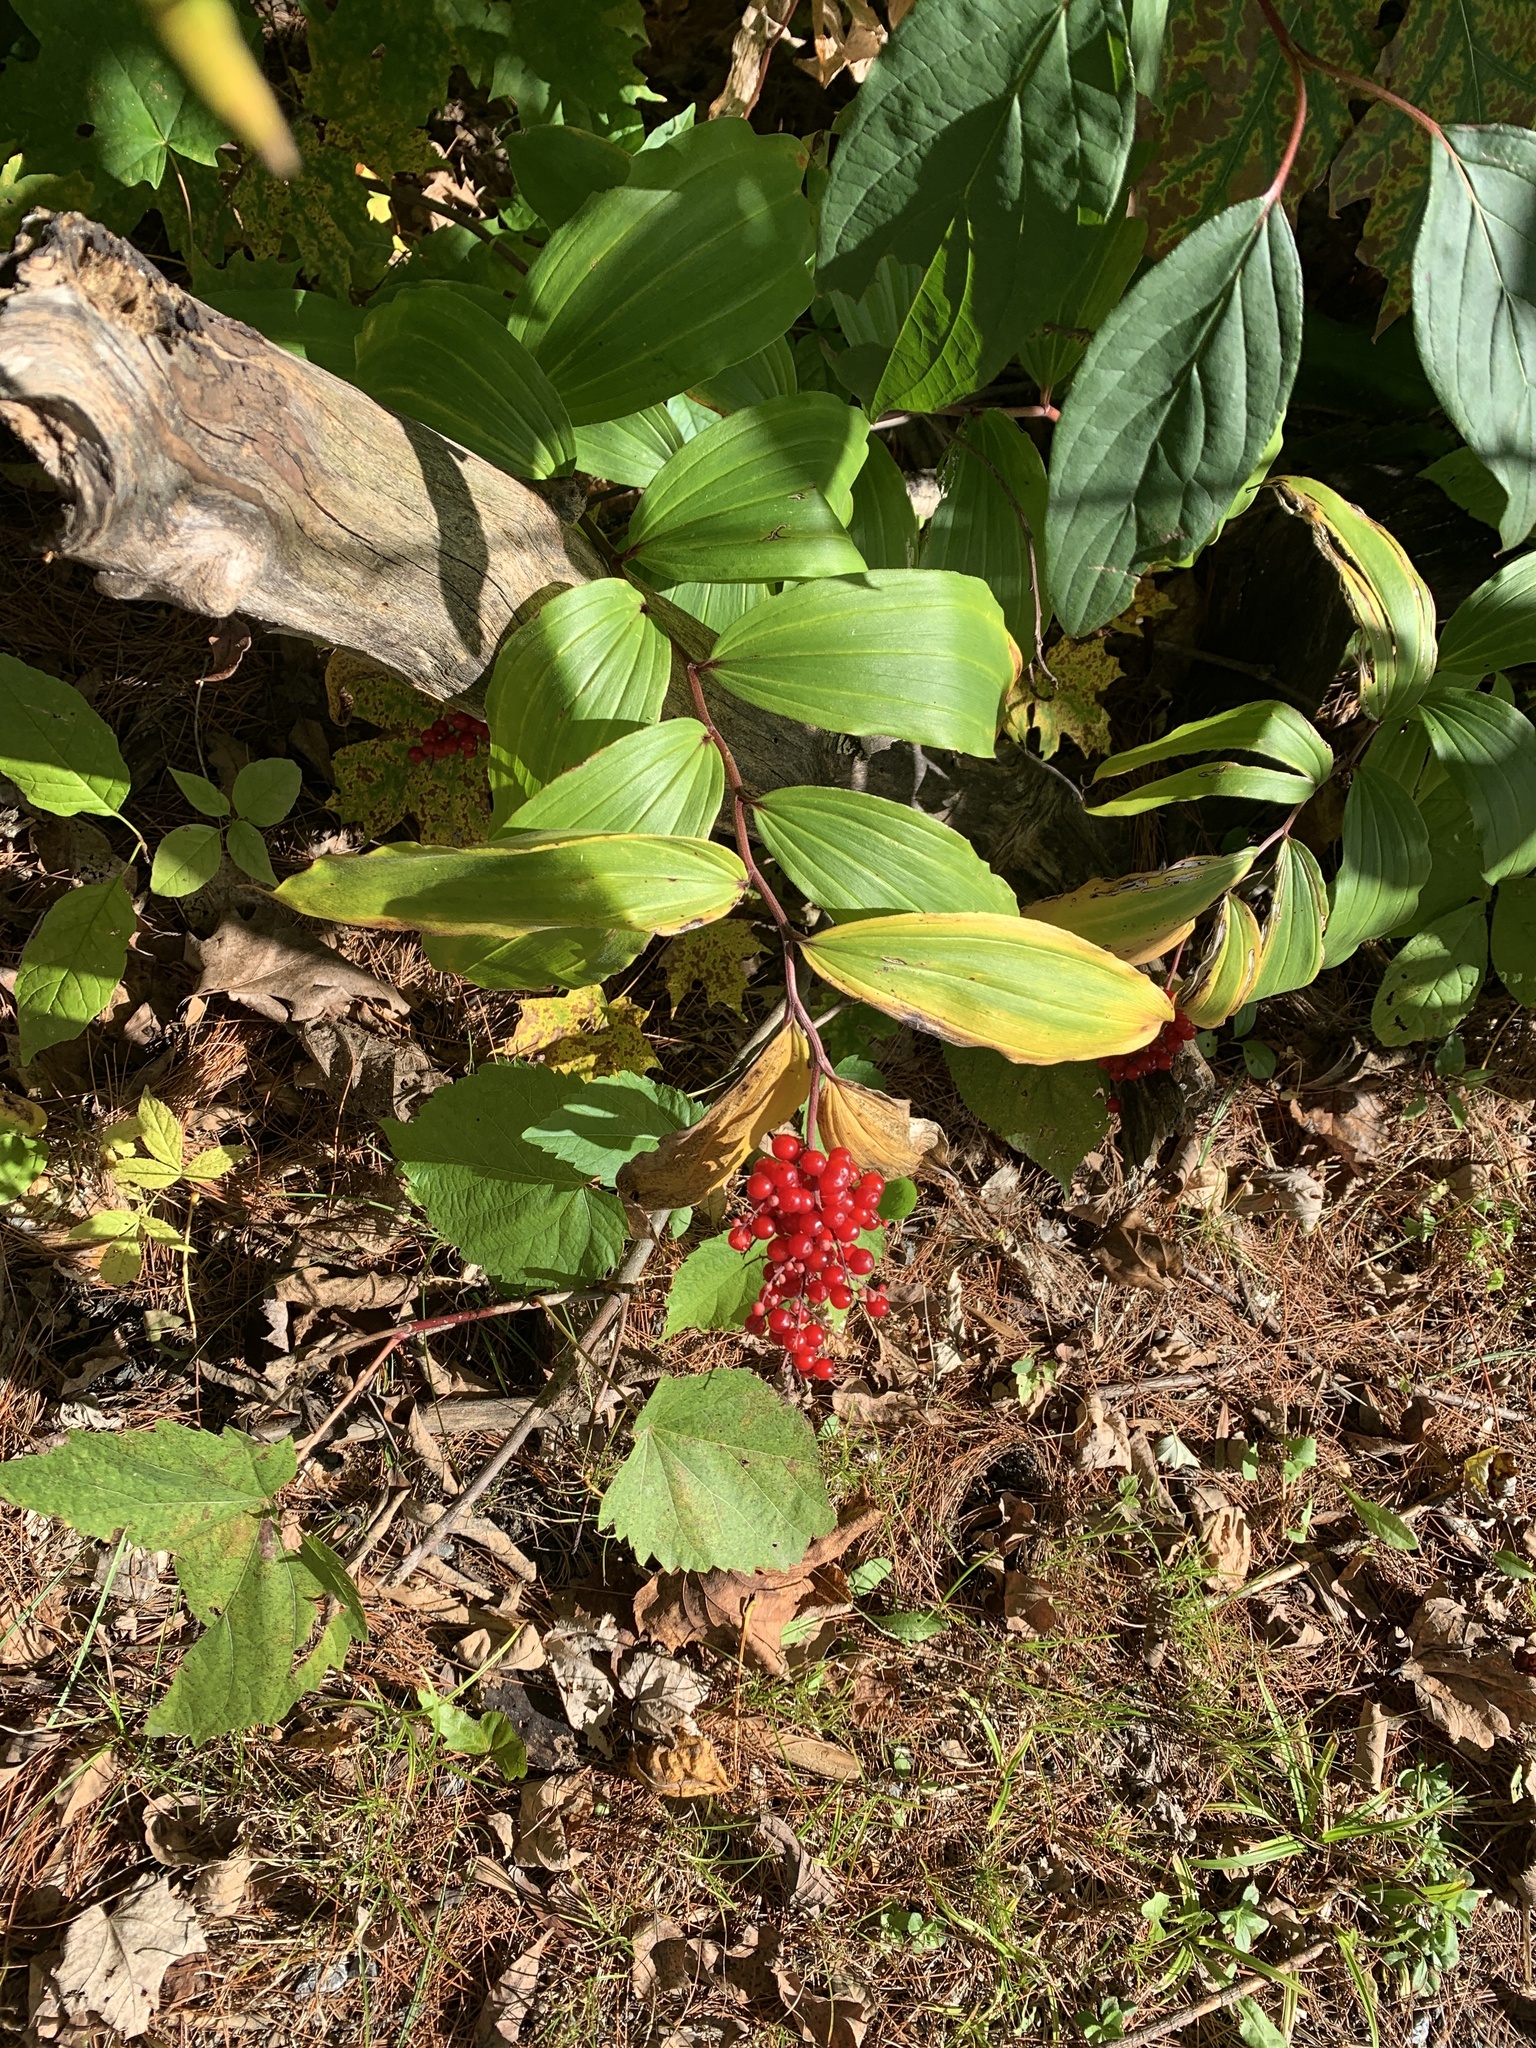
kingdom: Plantae
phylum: Tracheophyta
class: Liliopsida
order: Asparagales
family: Asparagaceae
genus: Maianthemum
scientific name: Maianthemum racemosum
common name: False spikenard
